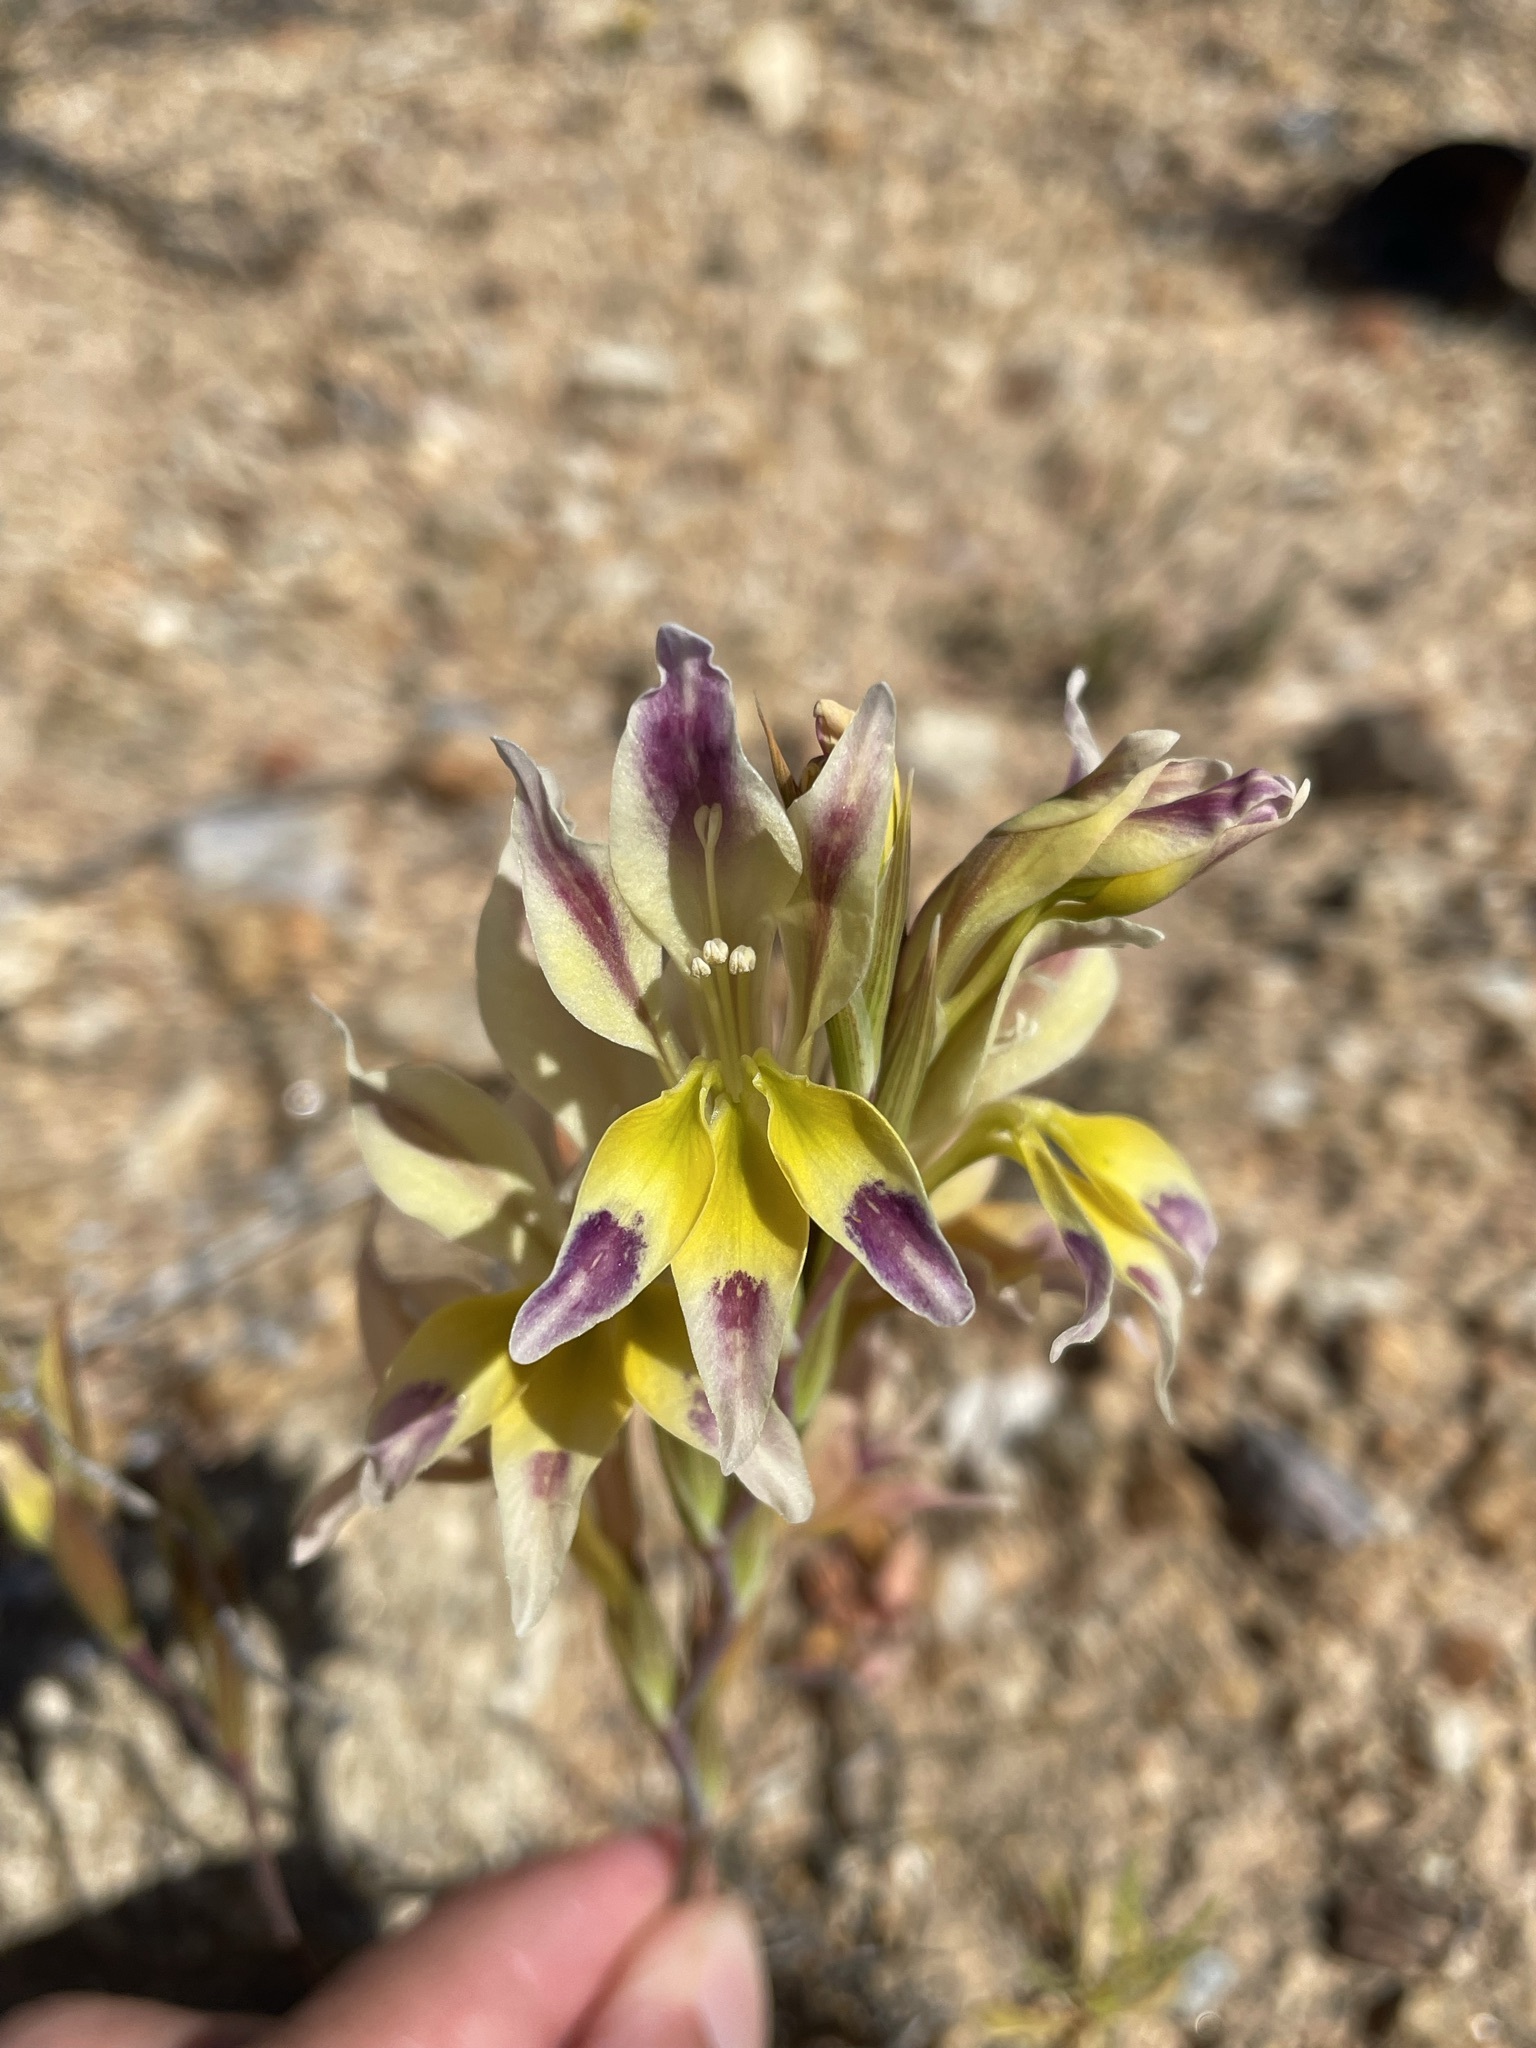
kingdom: Plantae
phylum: Tracheophyta
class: Liliopsida
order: Asparagales
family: Iridaceae
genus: Gladiolus
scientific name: Gladiolus scullyi
